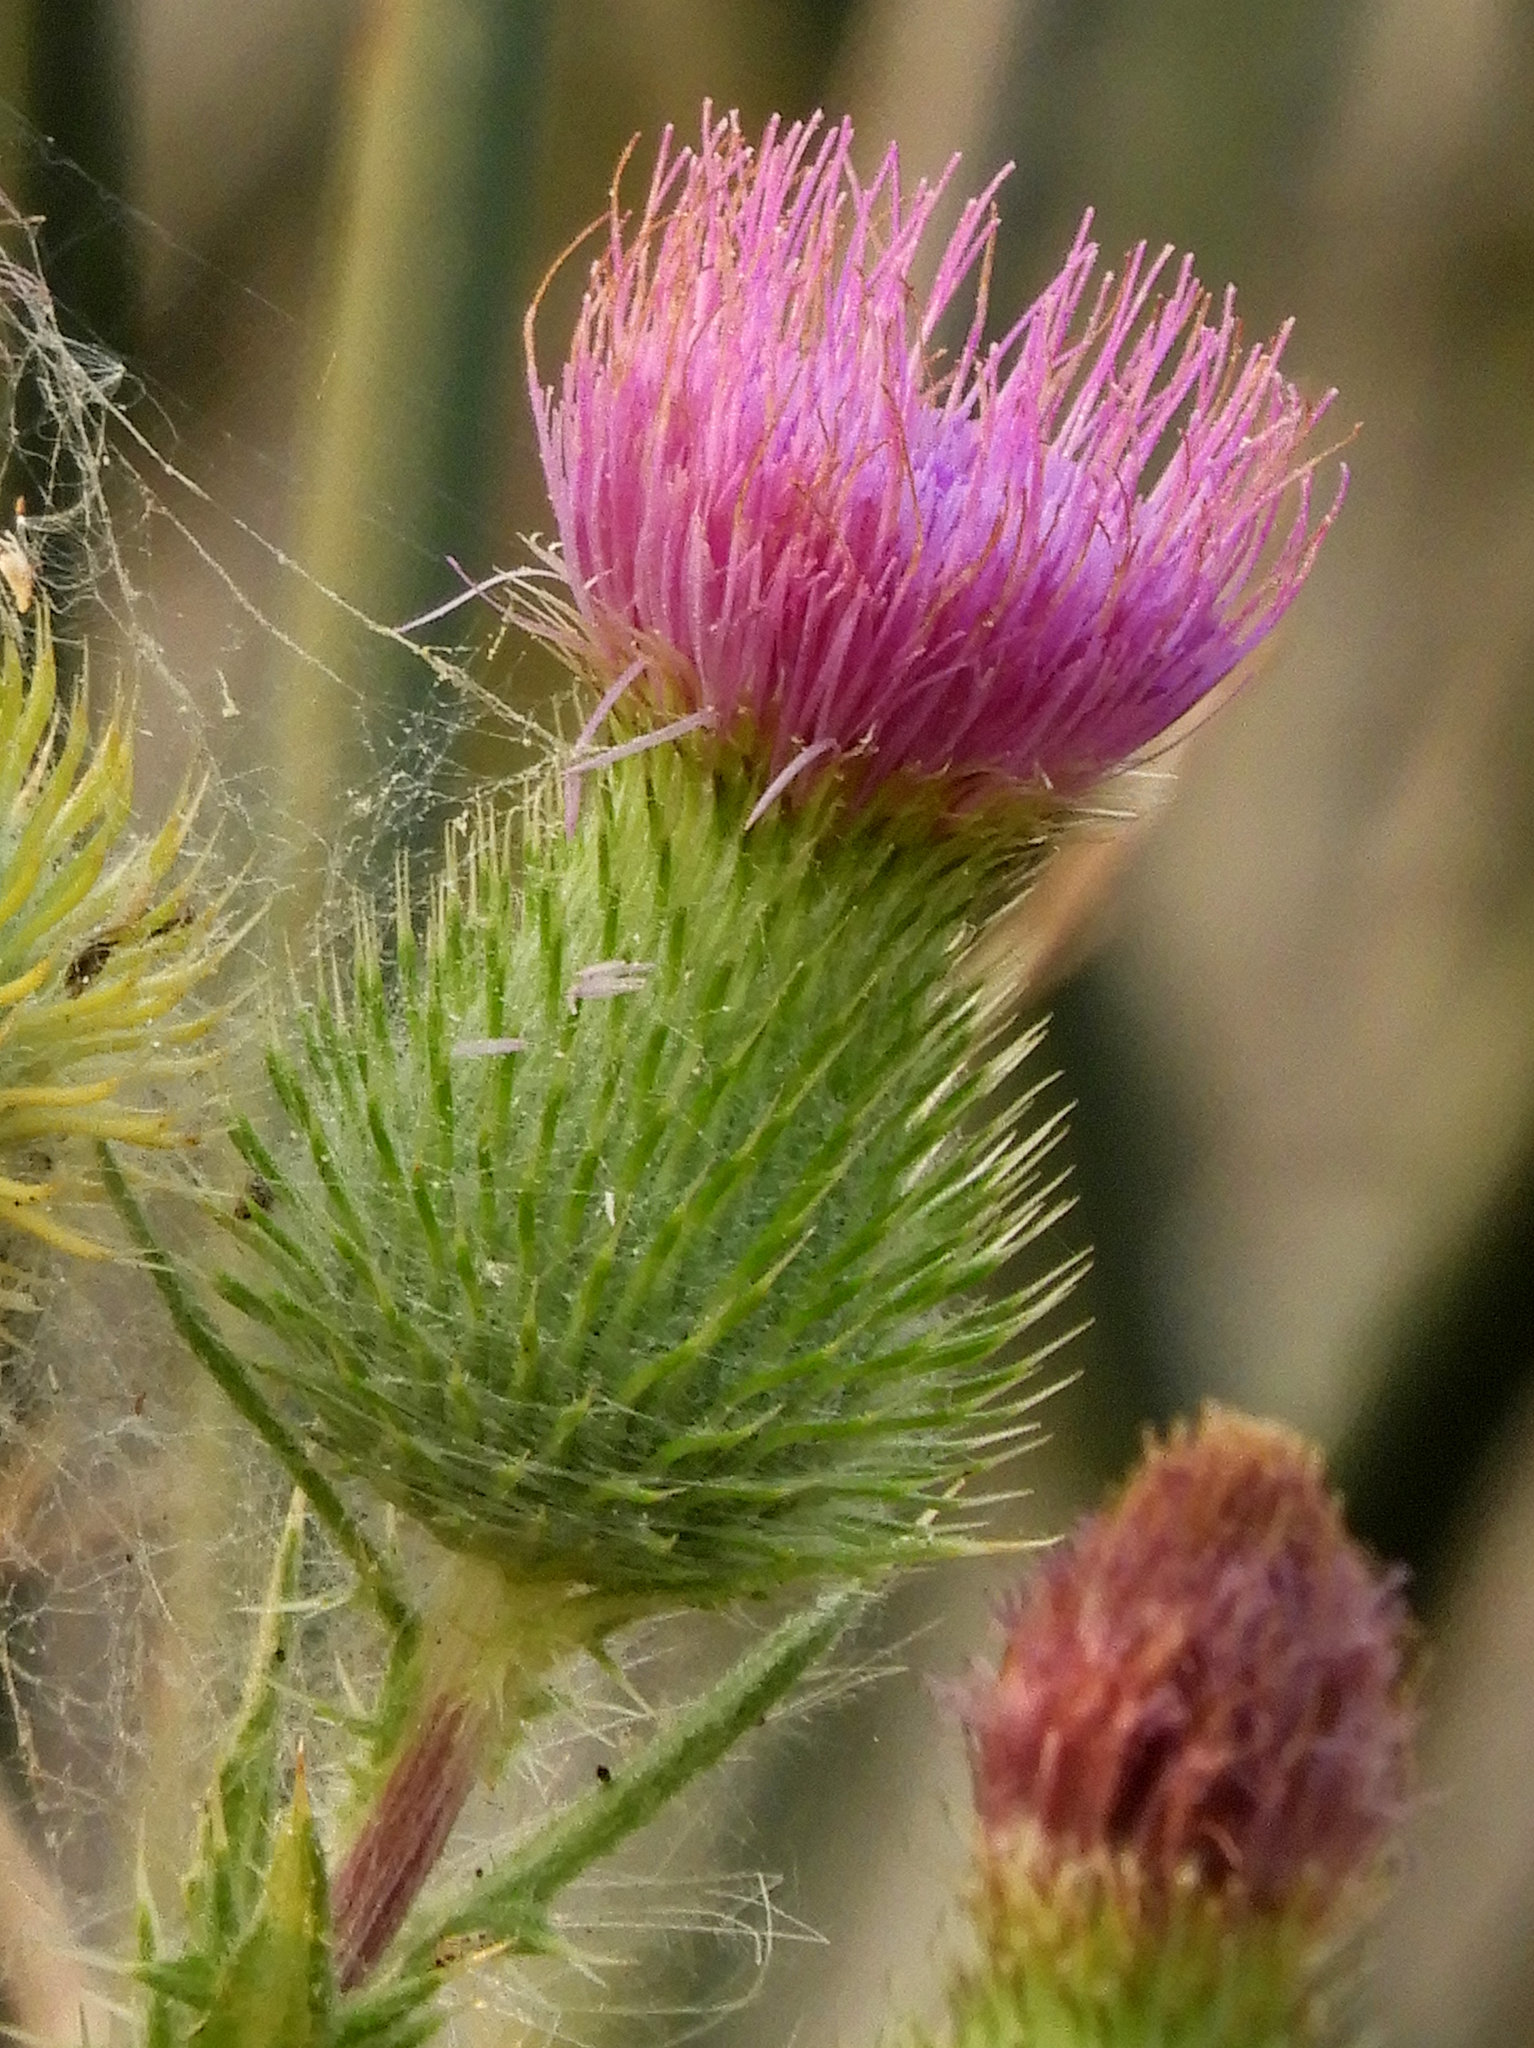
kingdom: Plantae
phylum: Tracheophyta
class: Magnoliopsida
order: Asterales
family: Asteraceae
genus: Cirsium
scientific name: Cirsium vulgare
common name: Bull thistle
